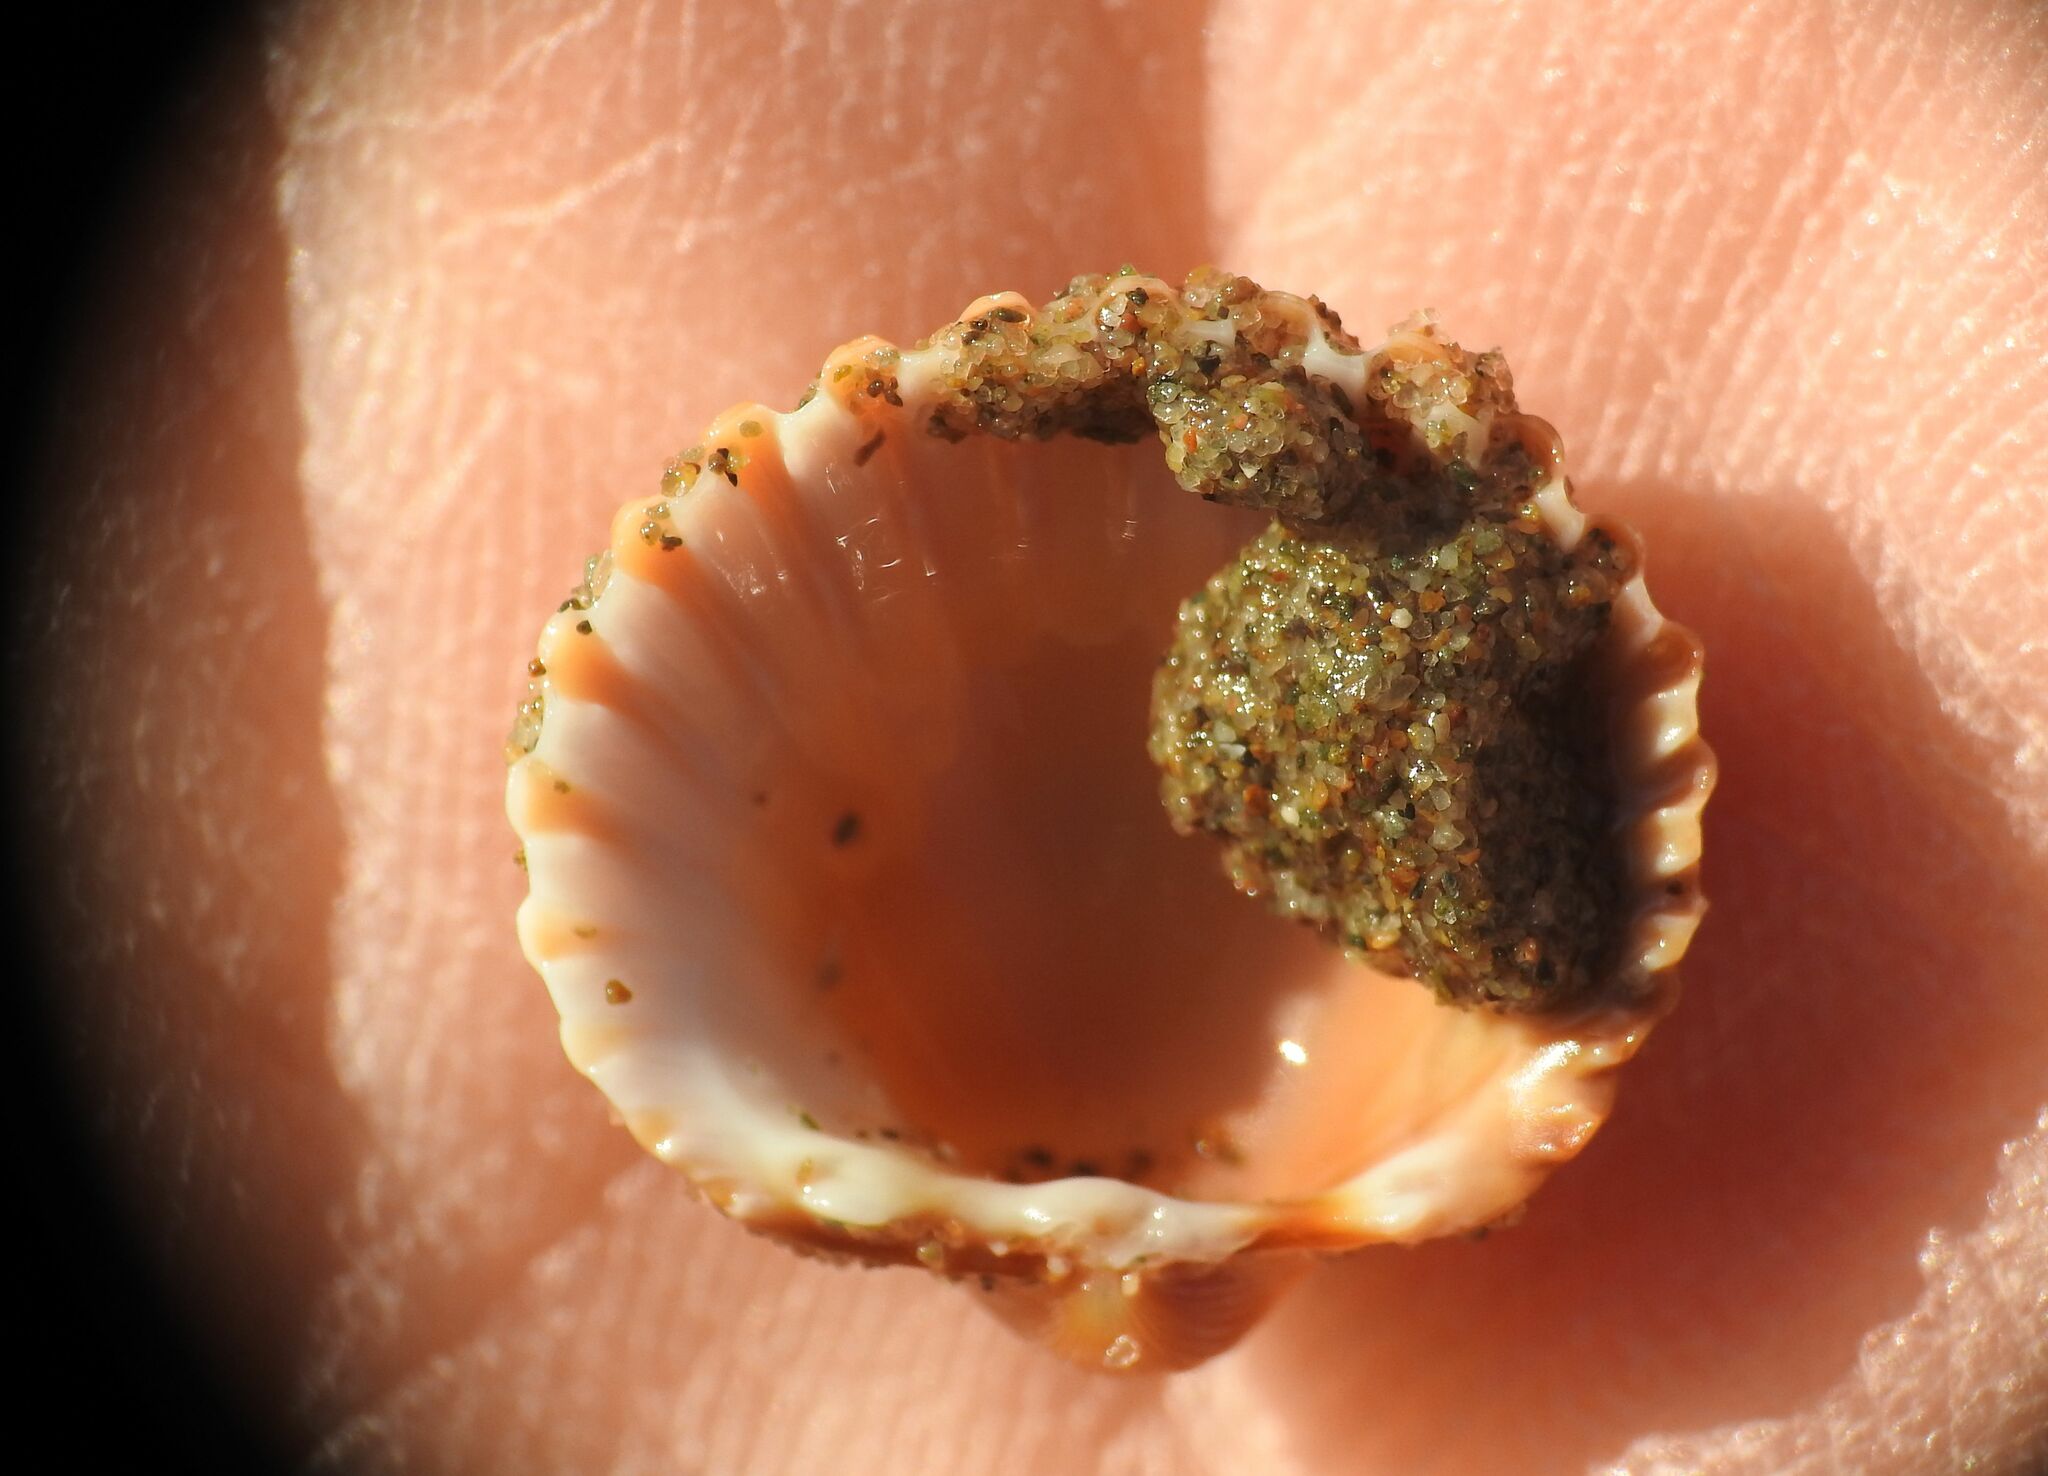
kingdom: Animalia
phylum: Mollusca
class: Bivalvia
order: Cardiida
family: Cardiidae
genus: Acanthocardia
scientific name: Acanthocardia tuberculata
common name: Rough cockle
